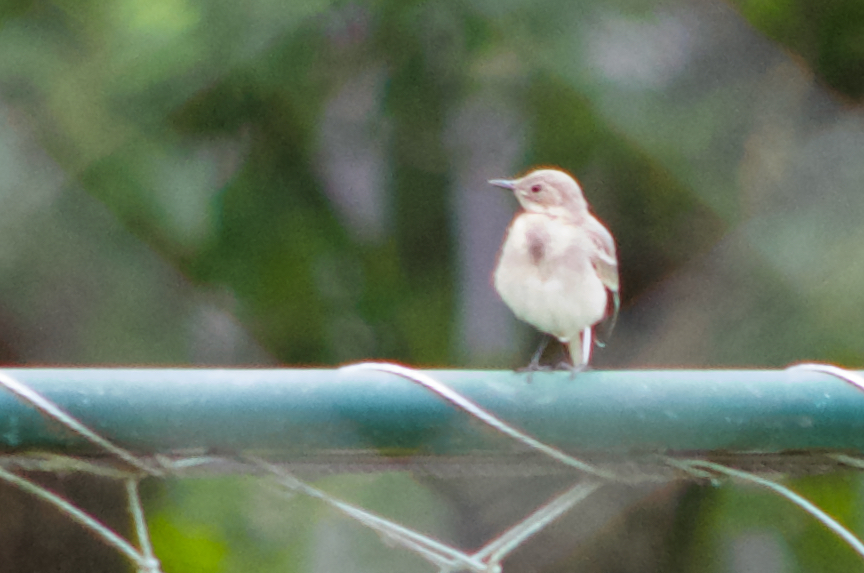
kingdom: Animalia
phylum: Chordata
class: Aves
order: Passeriformes
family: Motacillidae
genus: Motacilla
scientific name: Motacilla alba
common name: White wagtail
